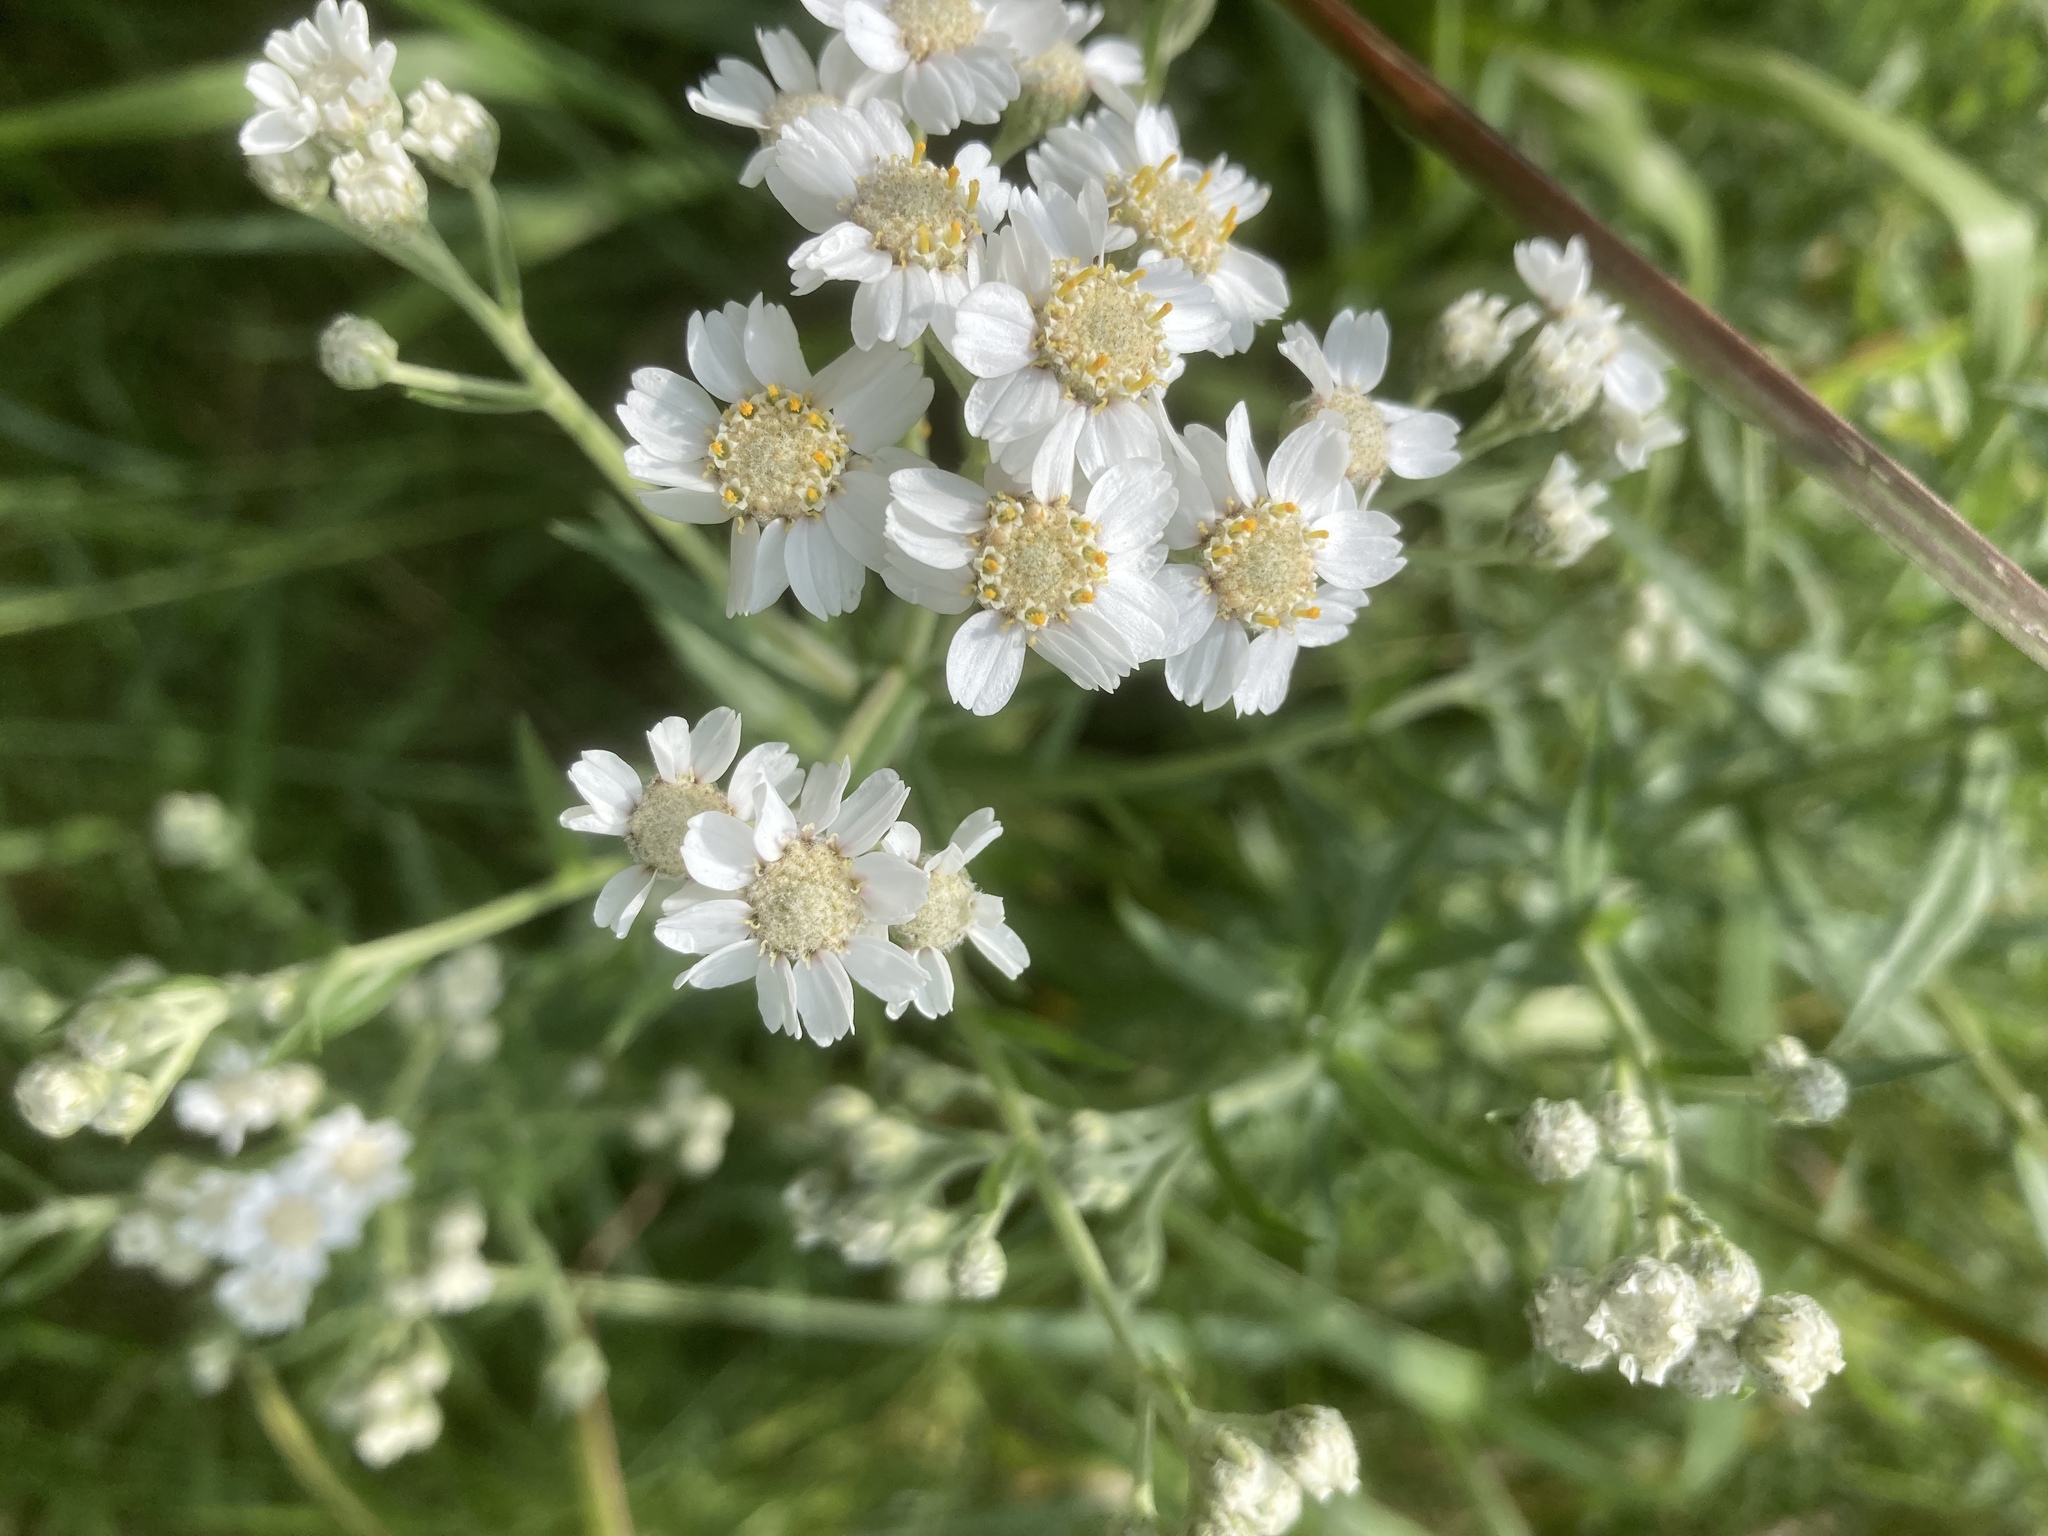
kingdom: Plantae
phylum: Tracheophyta
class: Magnoliopsida
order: Asterales
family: Asteraceae
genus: Achillea
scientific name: Achillea ptarmica
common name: Sneezeweed
